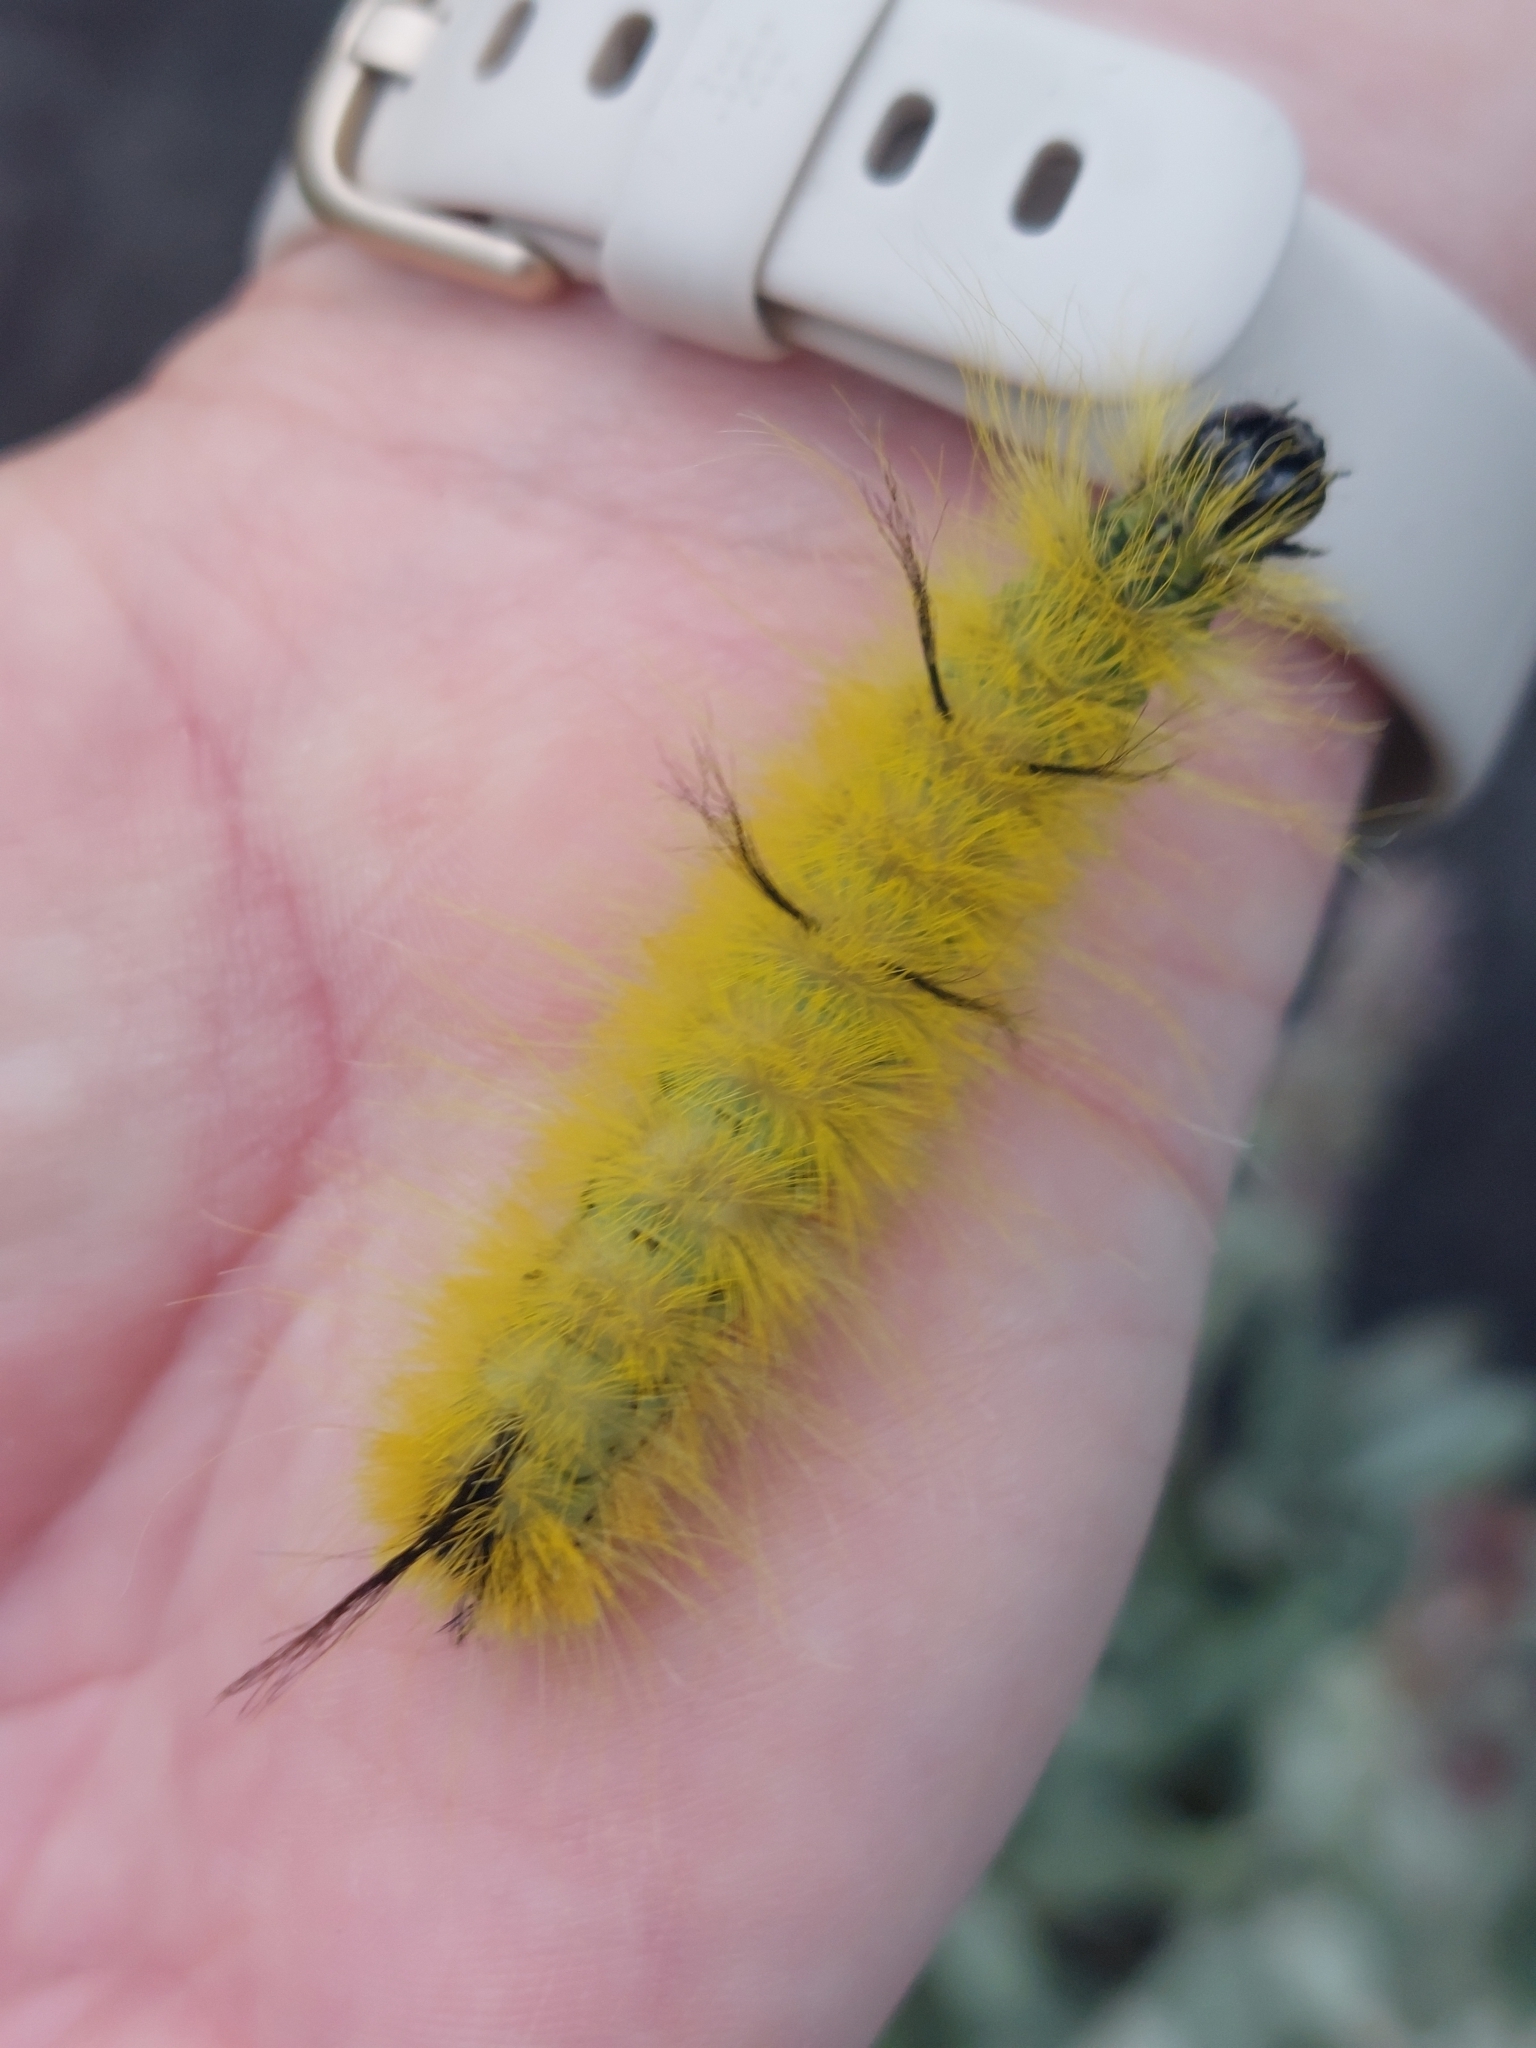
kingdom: Animalia
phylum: Arthropoda
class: Insecta
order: Lepidoptera
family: Noctuidae
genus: Acronicta
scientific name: Acronicta americana
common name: American dagger
